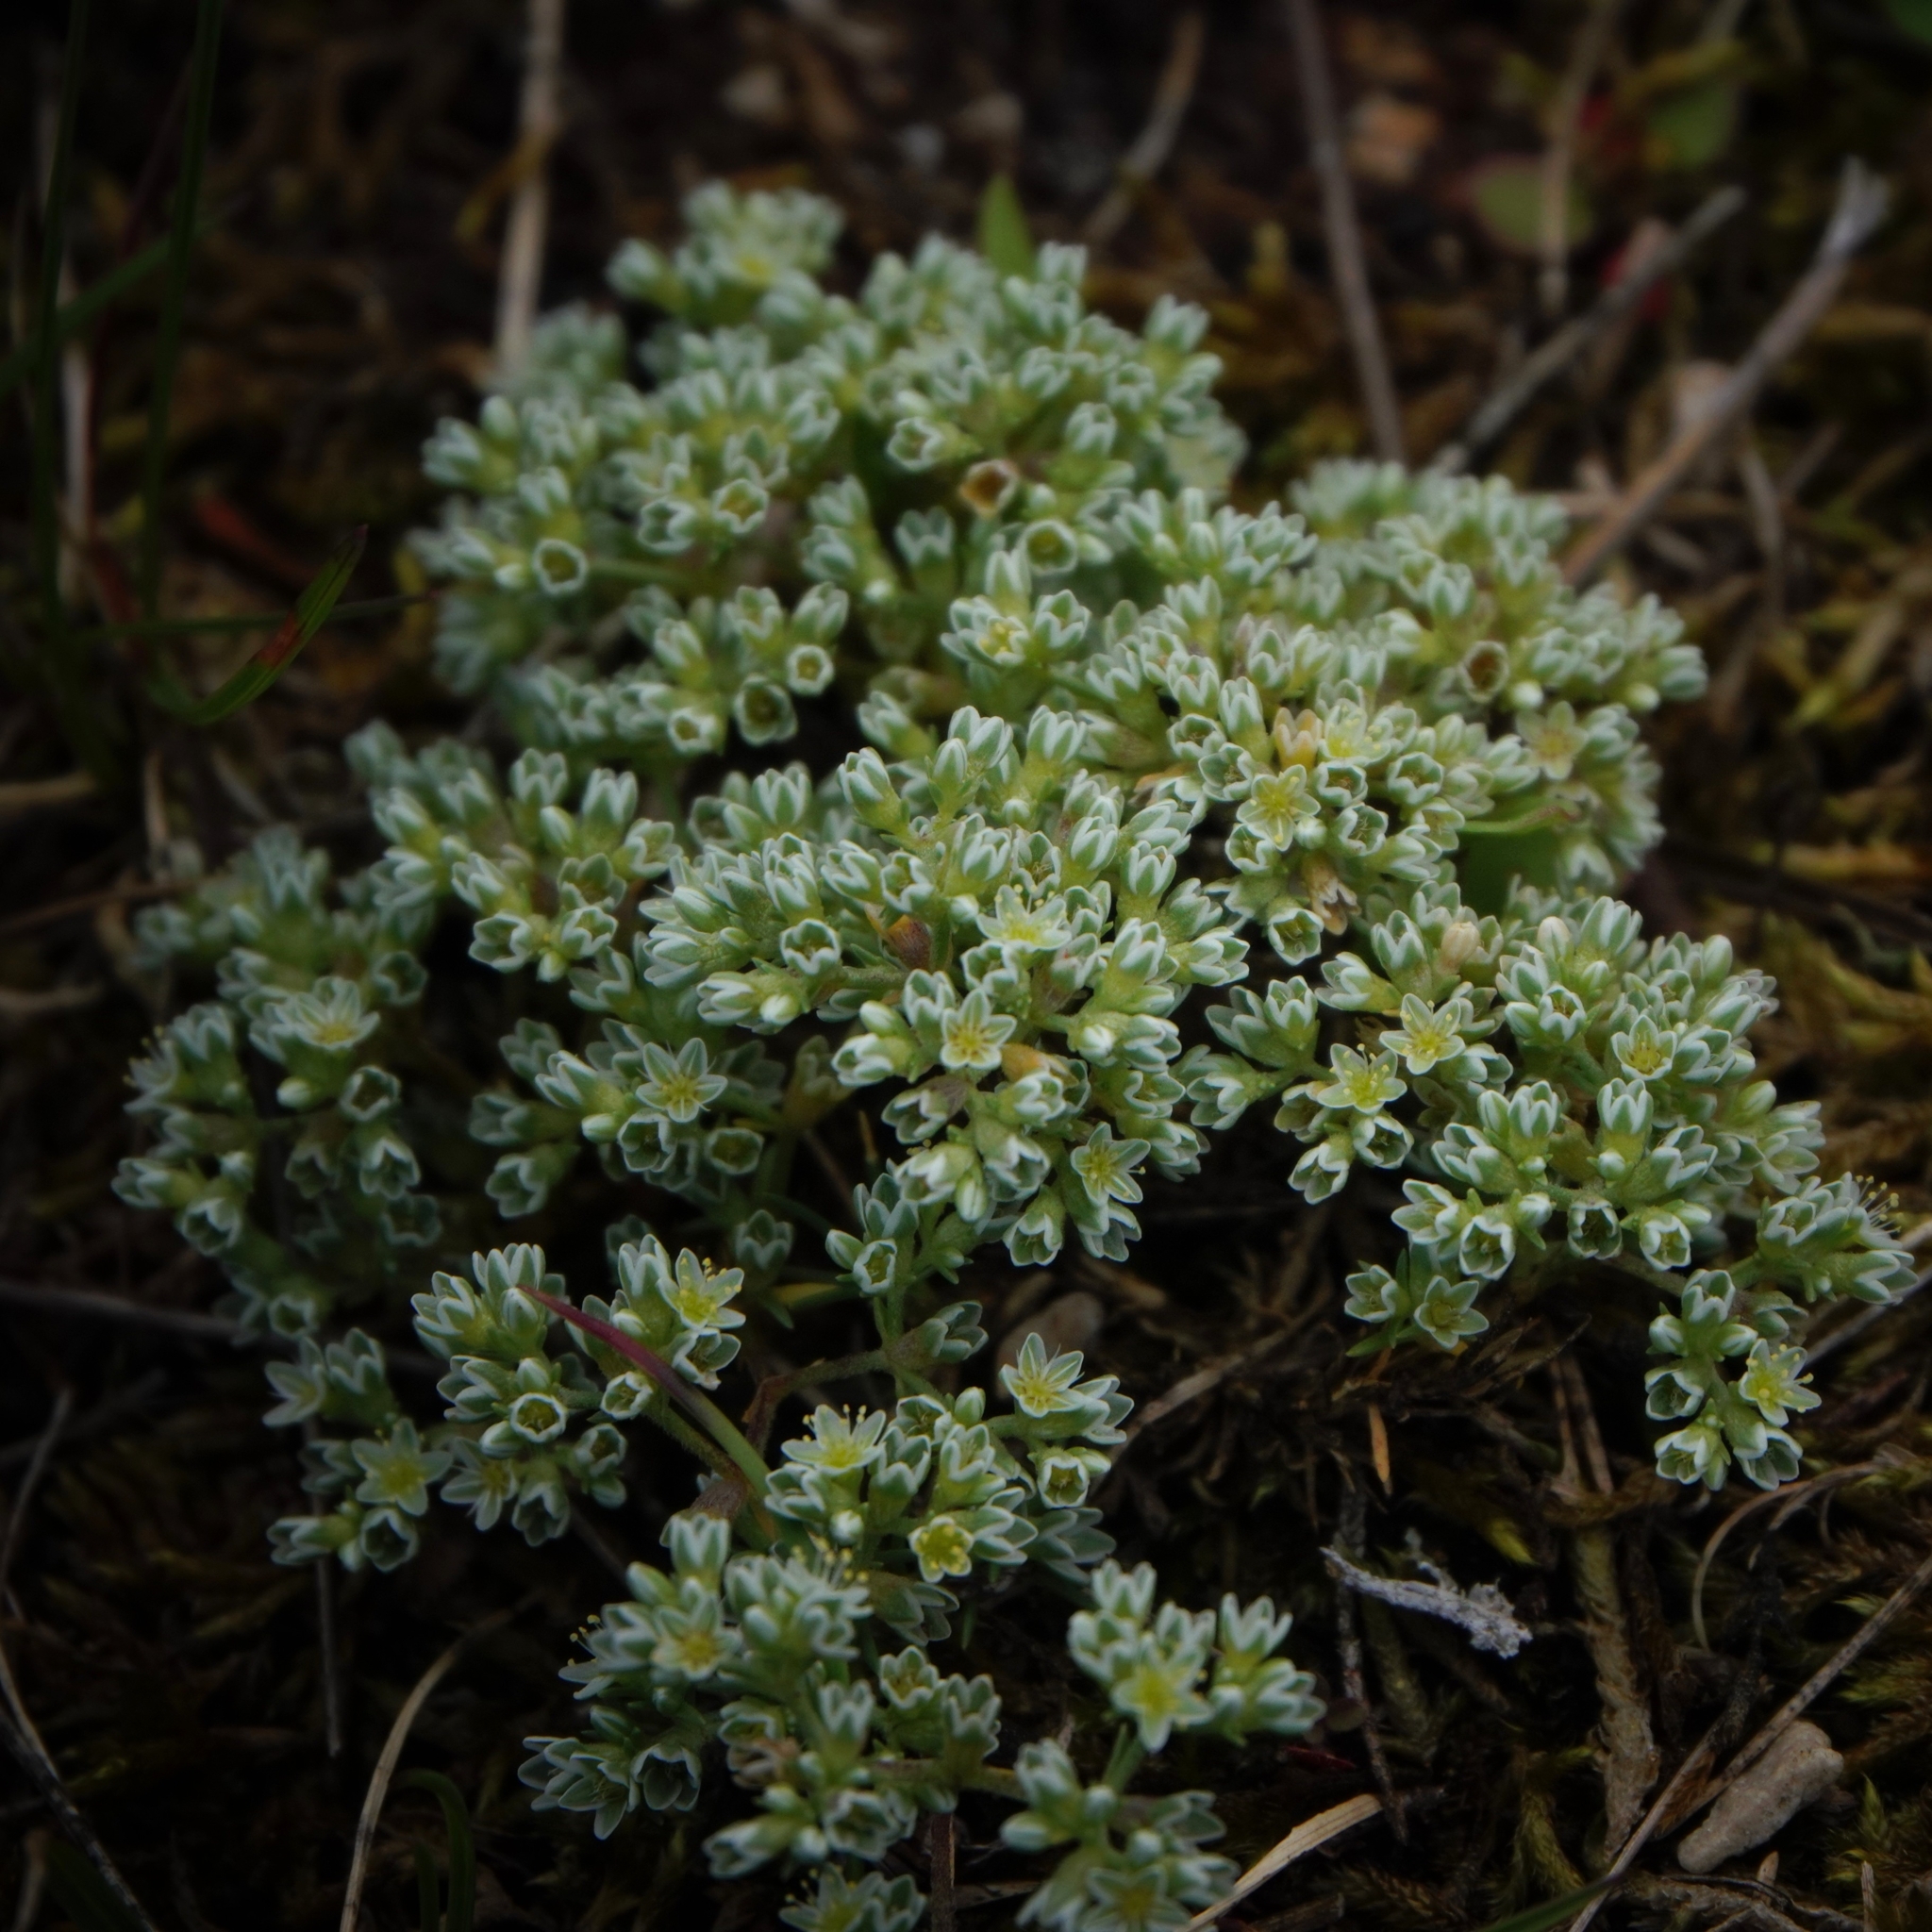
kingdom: Plantae
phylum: Tracheophyta
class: Magnoliopsida
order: Caryophyllales
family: Caryophyllaceae
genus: Scleranthus
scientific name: Scleranthus perennis
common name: Perennial knawel
